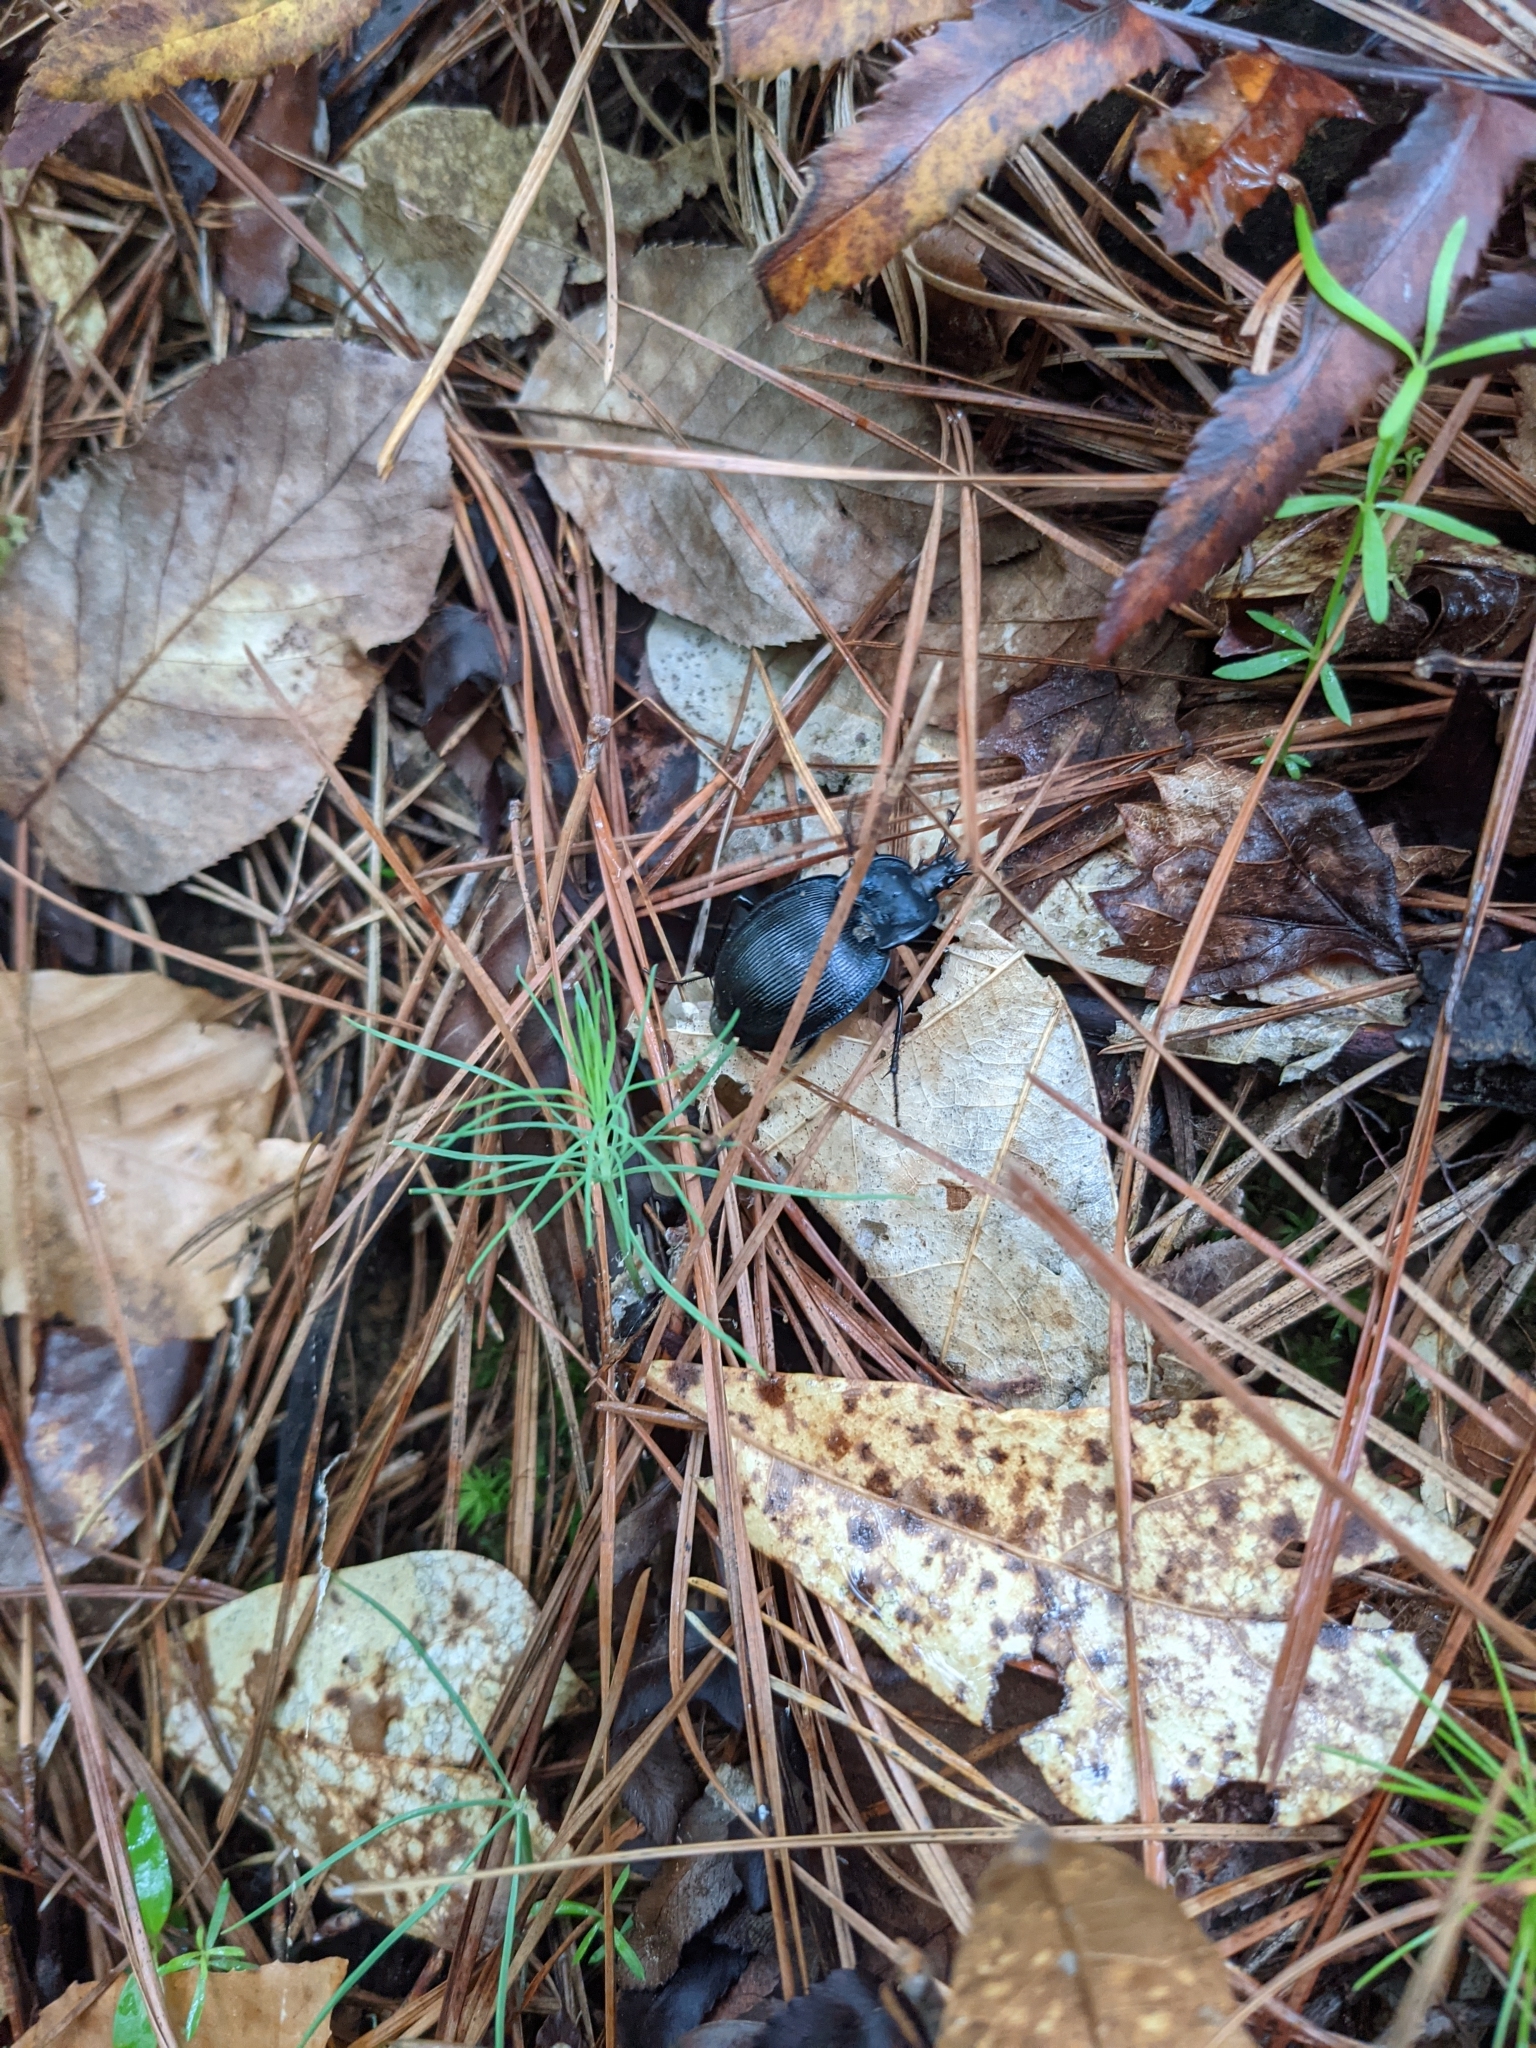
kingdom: Animalia
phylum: Arthropoda
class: Insecta
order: Coleoptera
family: Carabidae
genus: Scaphinotus
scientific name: Scaphinotus unicolor
